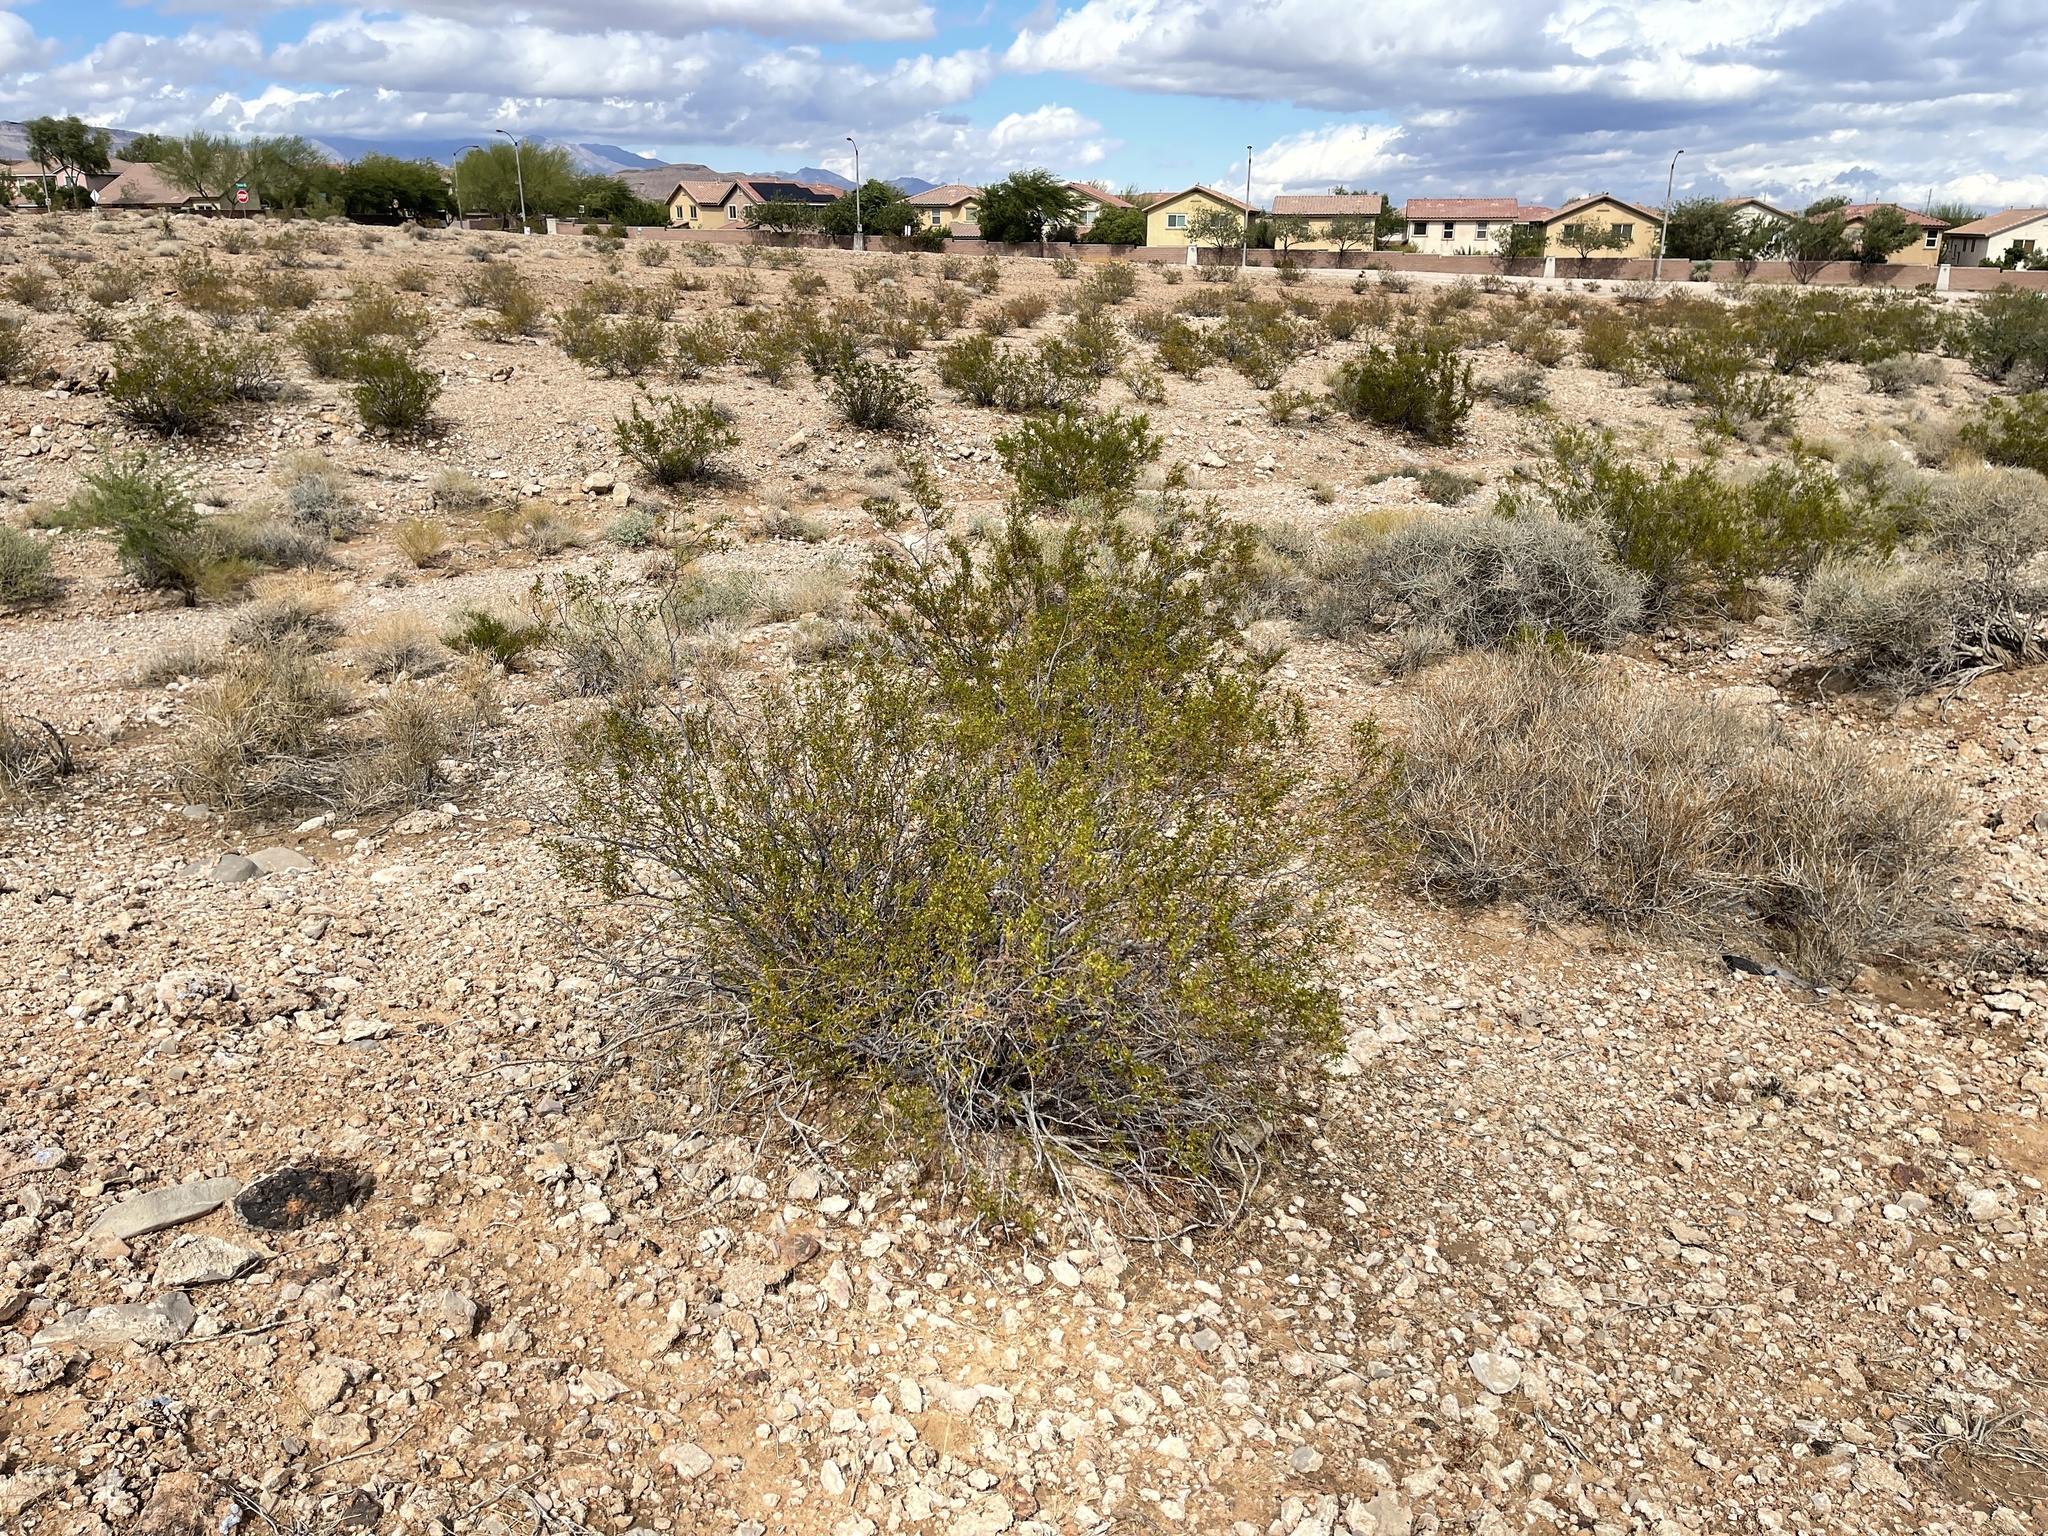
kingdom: Plantae
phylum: Tracheophyta
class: Magnoliopsida
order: Zygophyllales
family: Zygophyllaceae
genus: Larrea
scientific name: Larrea tridentata
